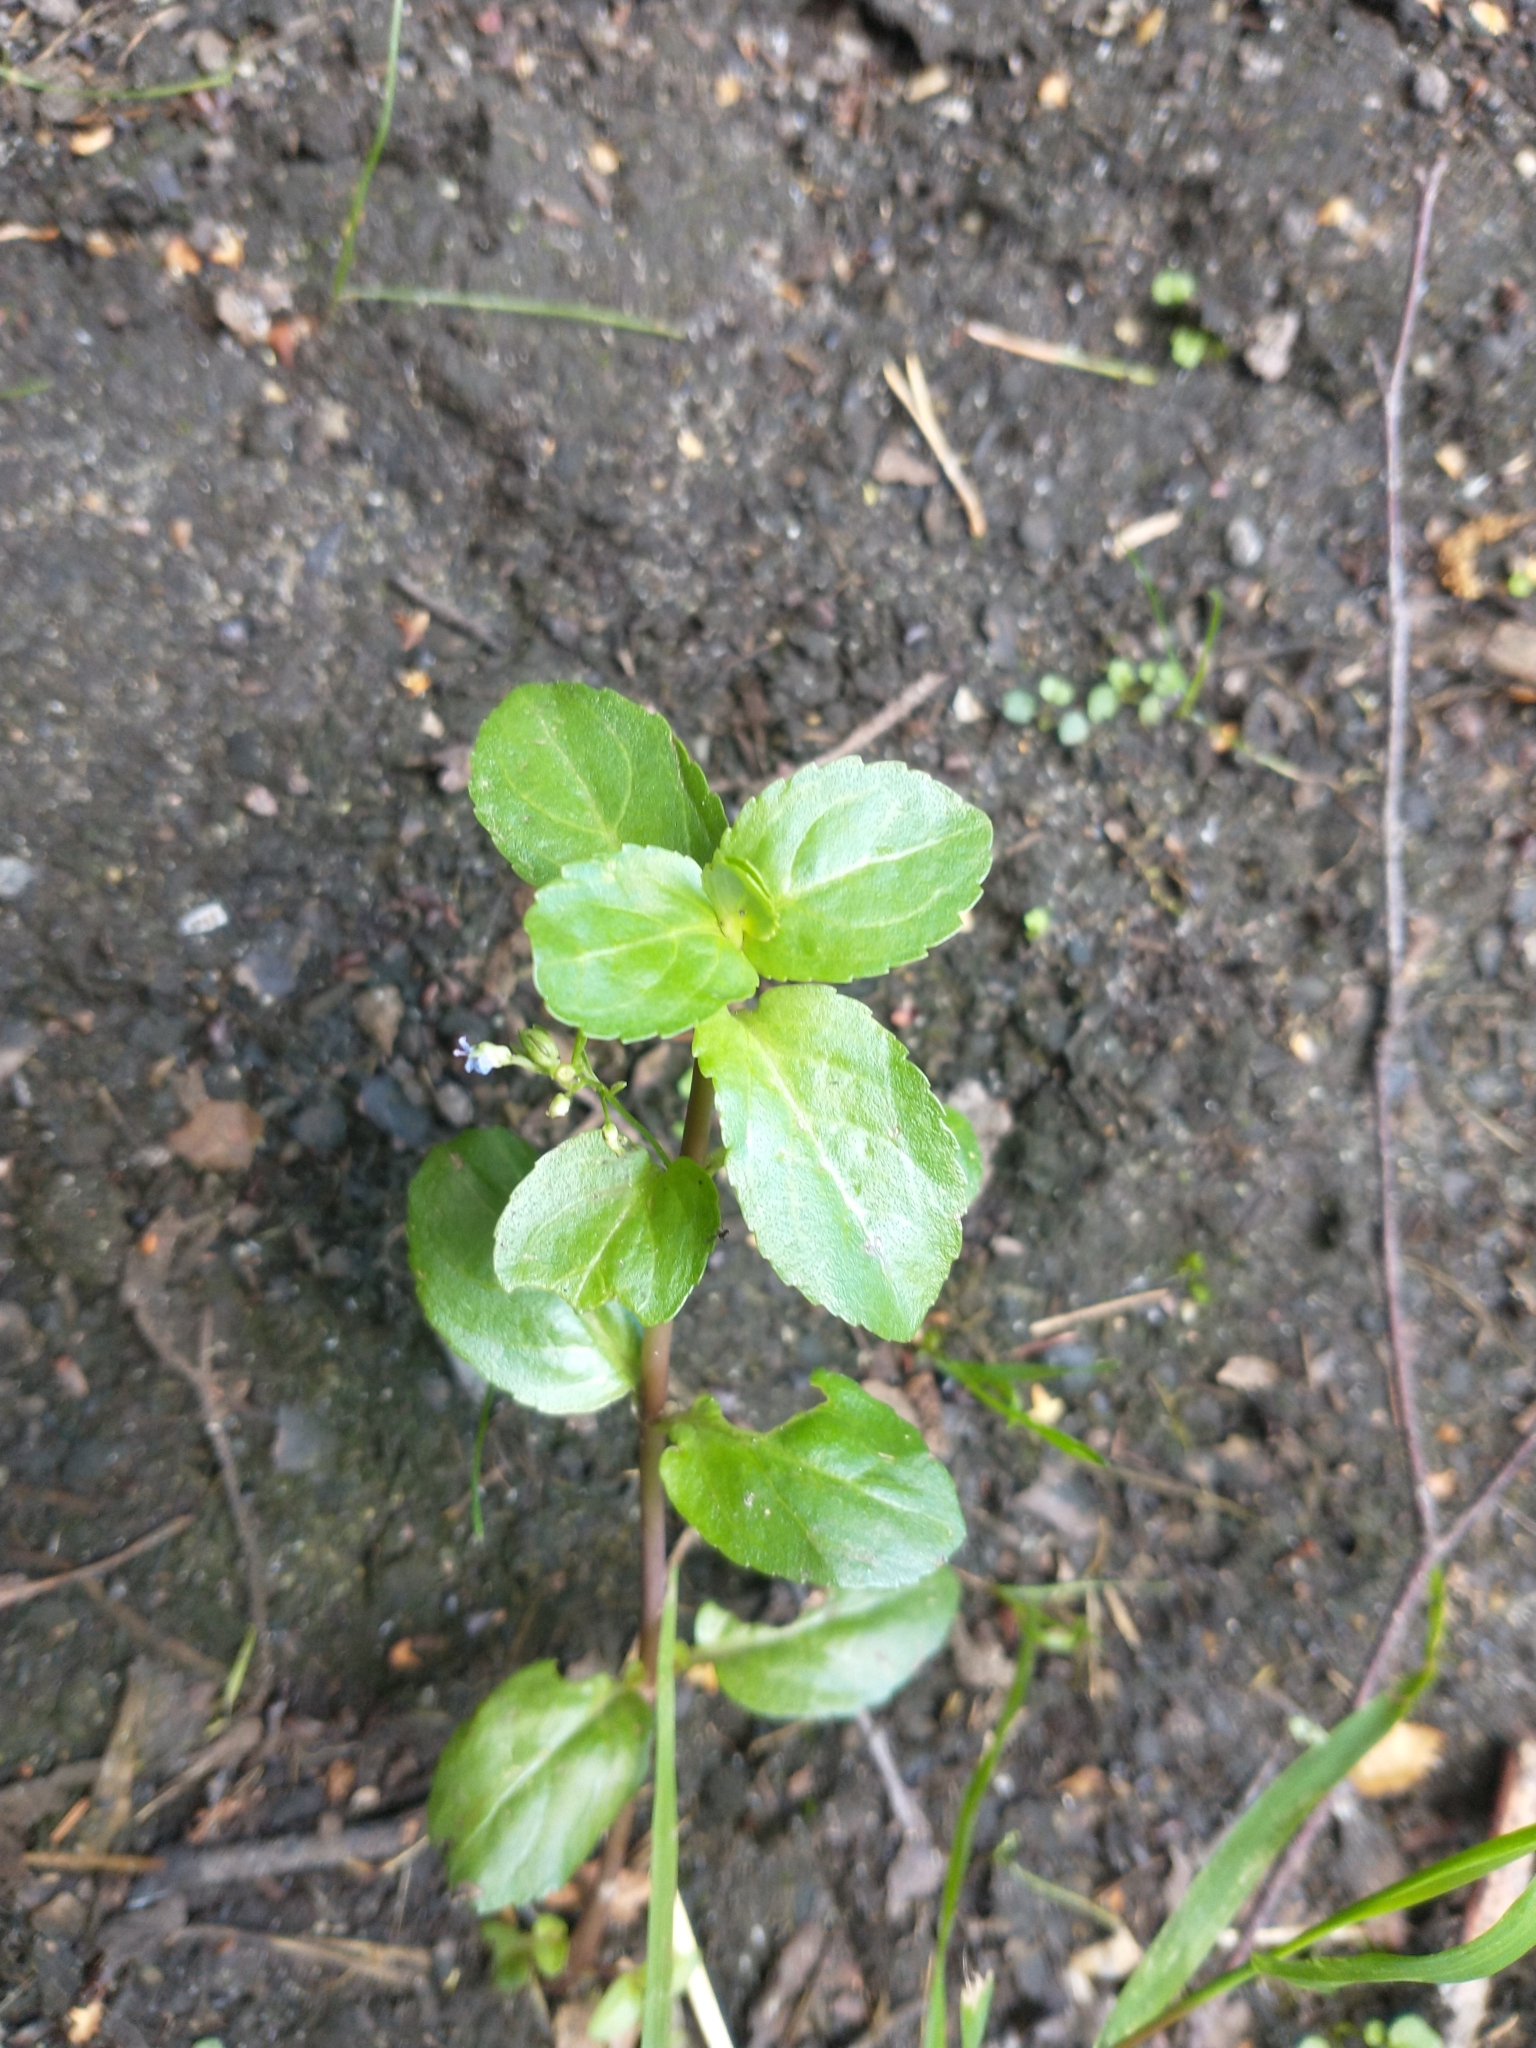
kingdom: Plantae
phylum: Tracheophyta
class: Magnoliopsida
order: Lamiales
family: Plantaginaceae
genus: Veronica
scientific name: Veronica beccabunga
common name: Brooklime
